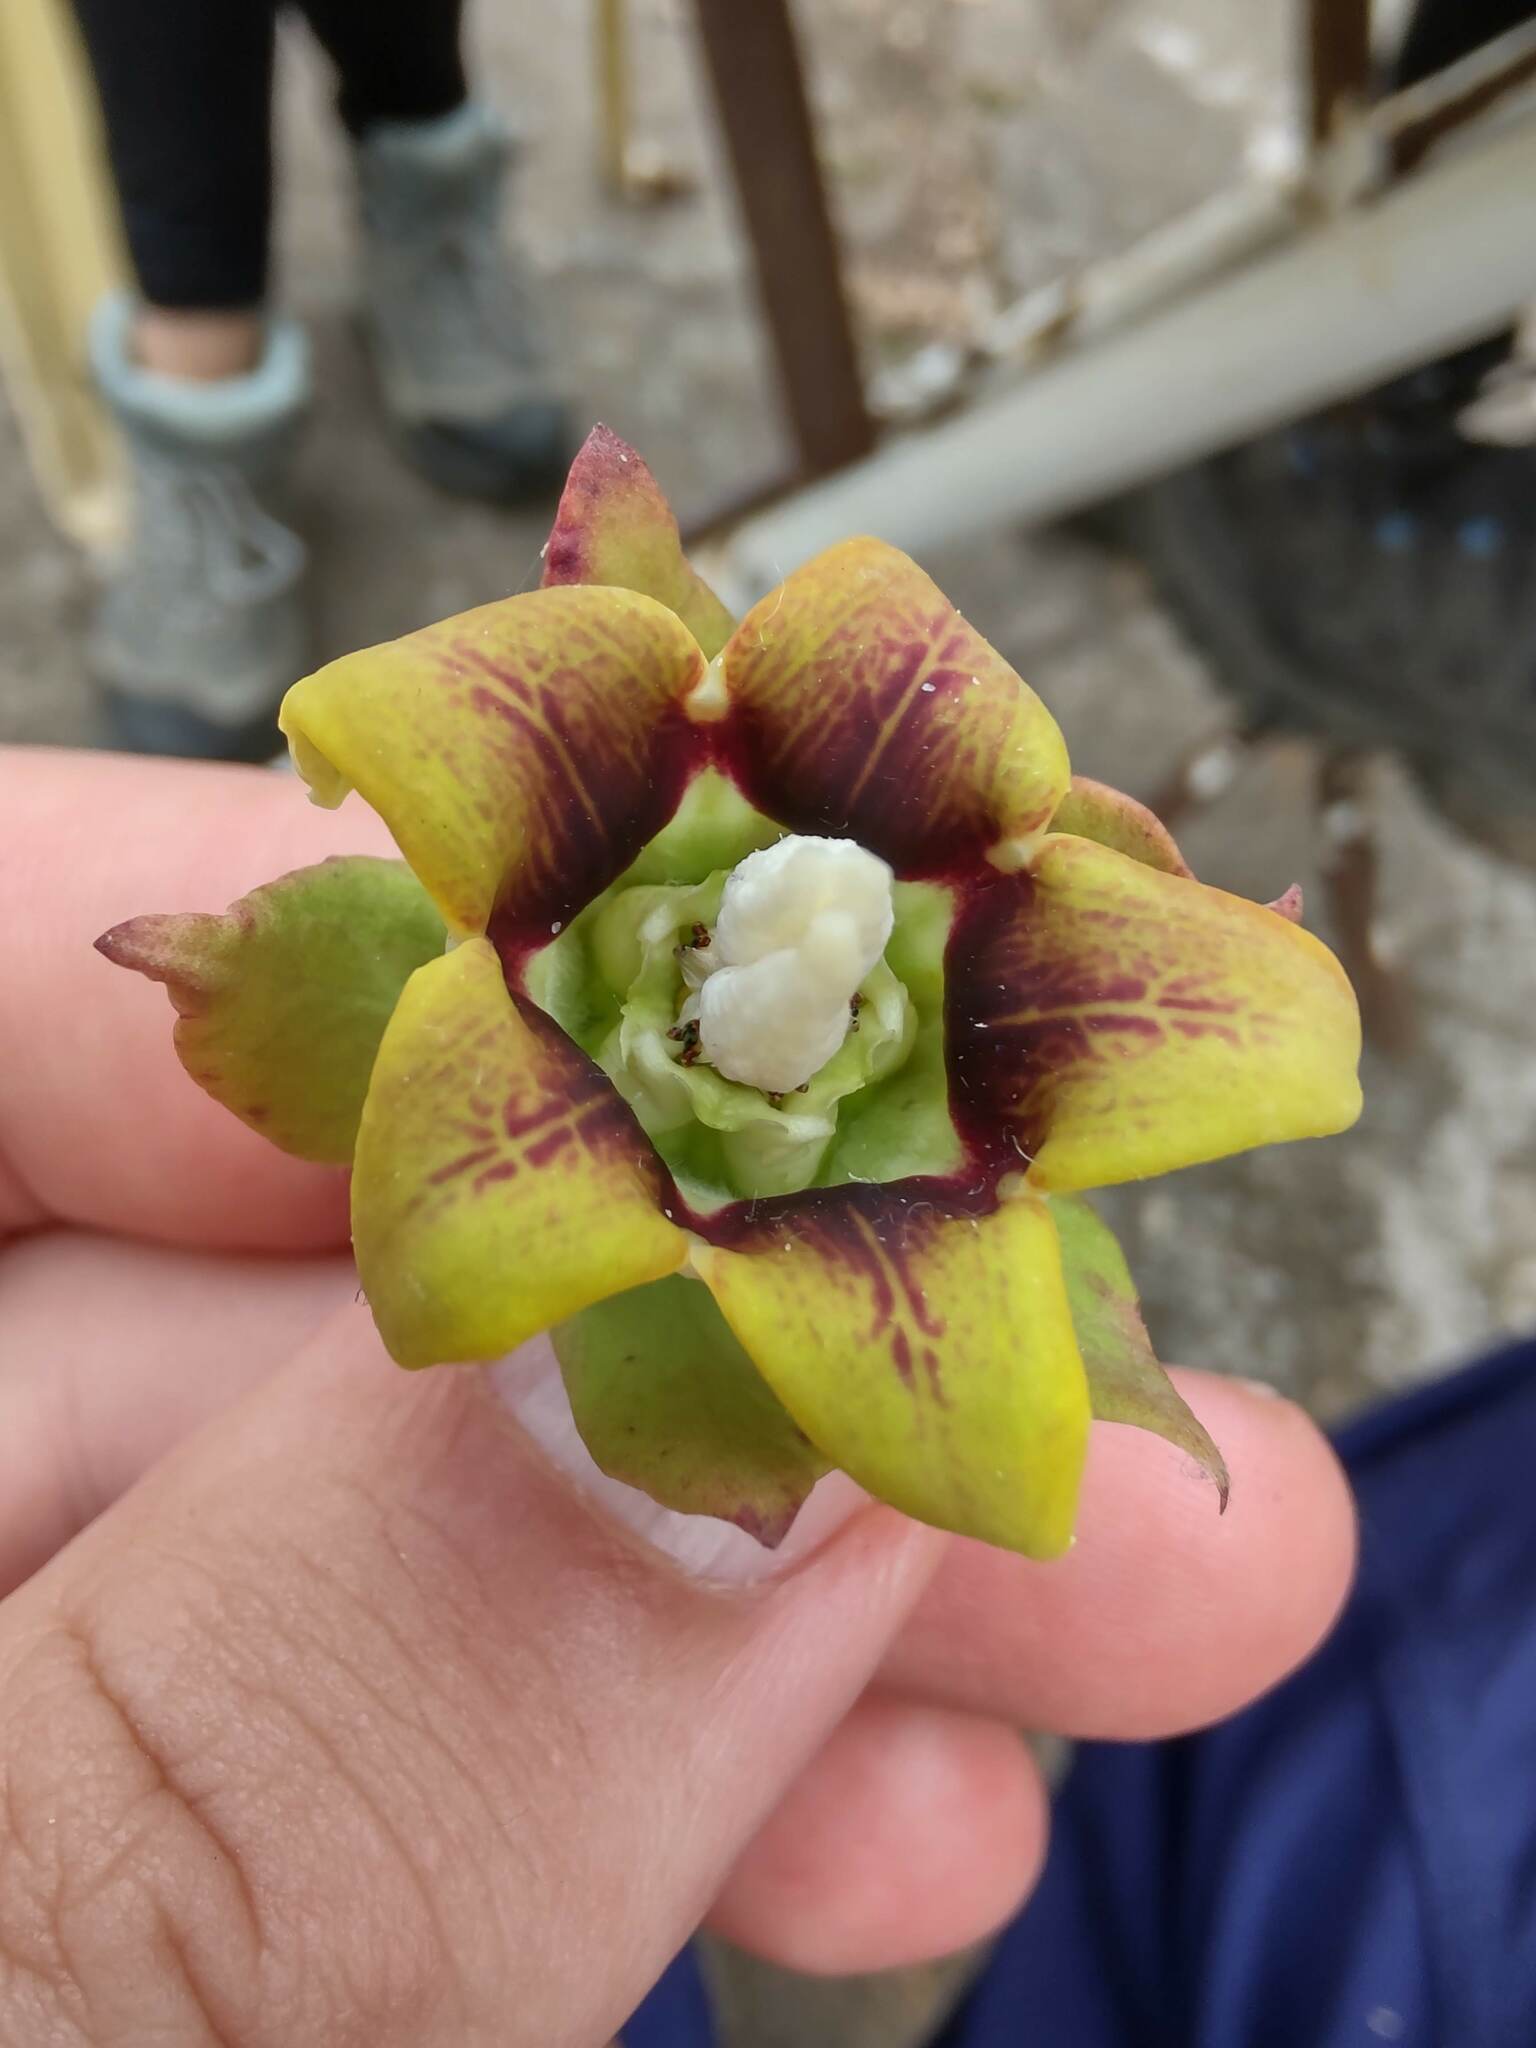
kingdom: Plantae
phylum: Tracheophyta
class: Magnoliopsida
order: Gentianales
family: Apocynaceae
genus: Araujia
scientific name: Araujia megapotamica
